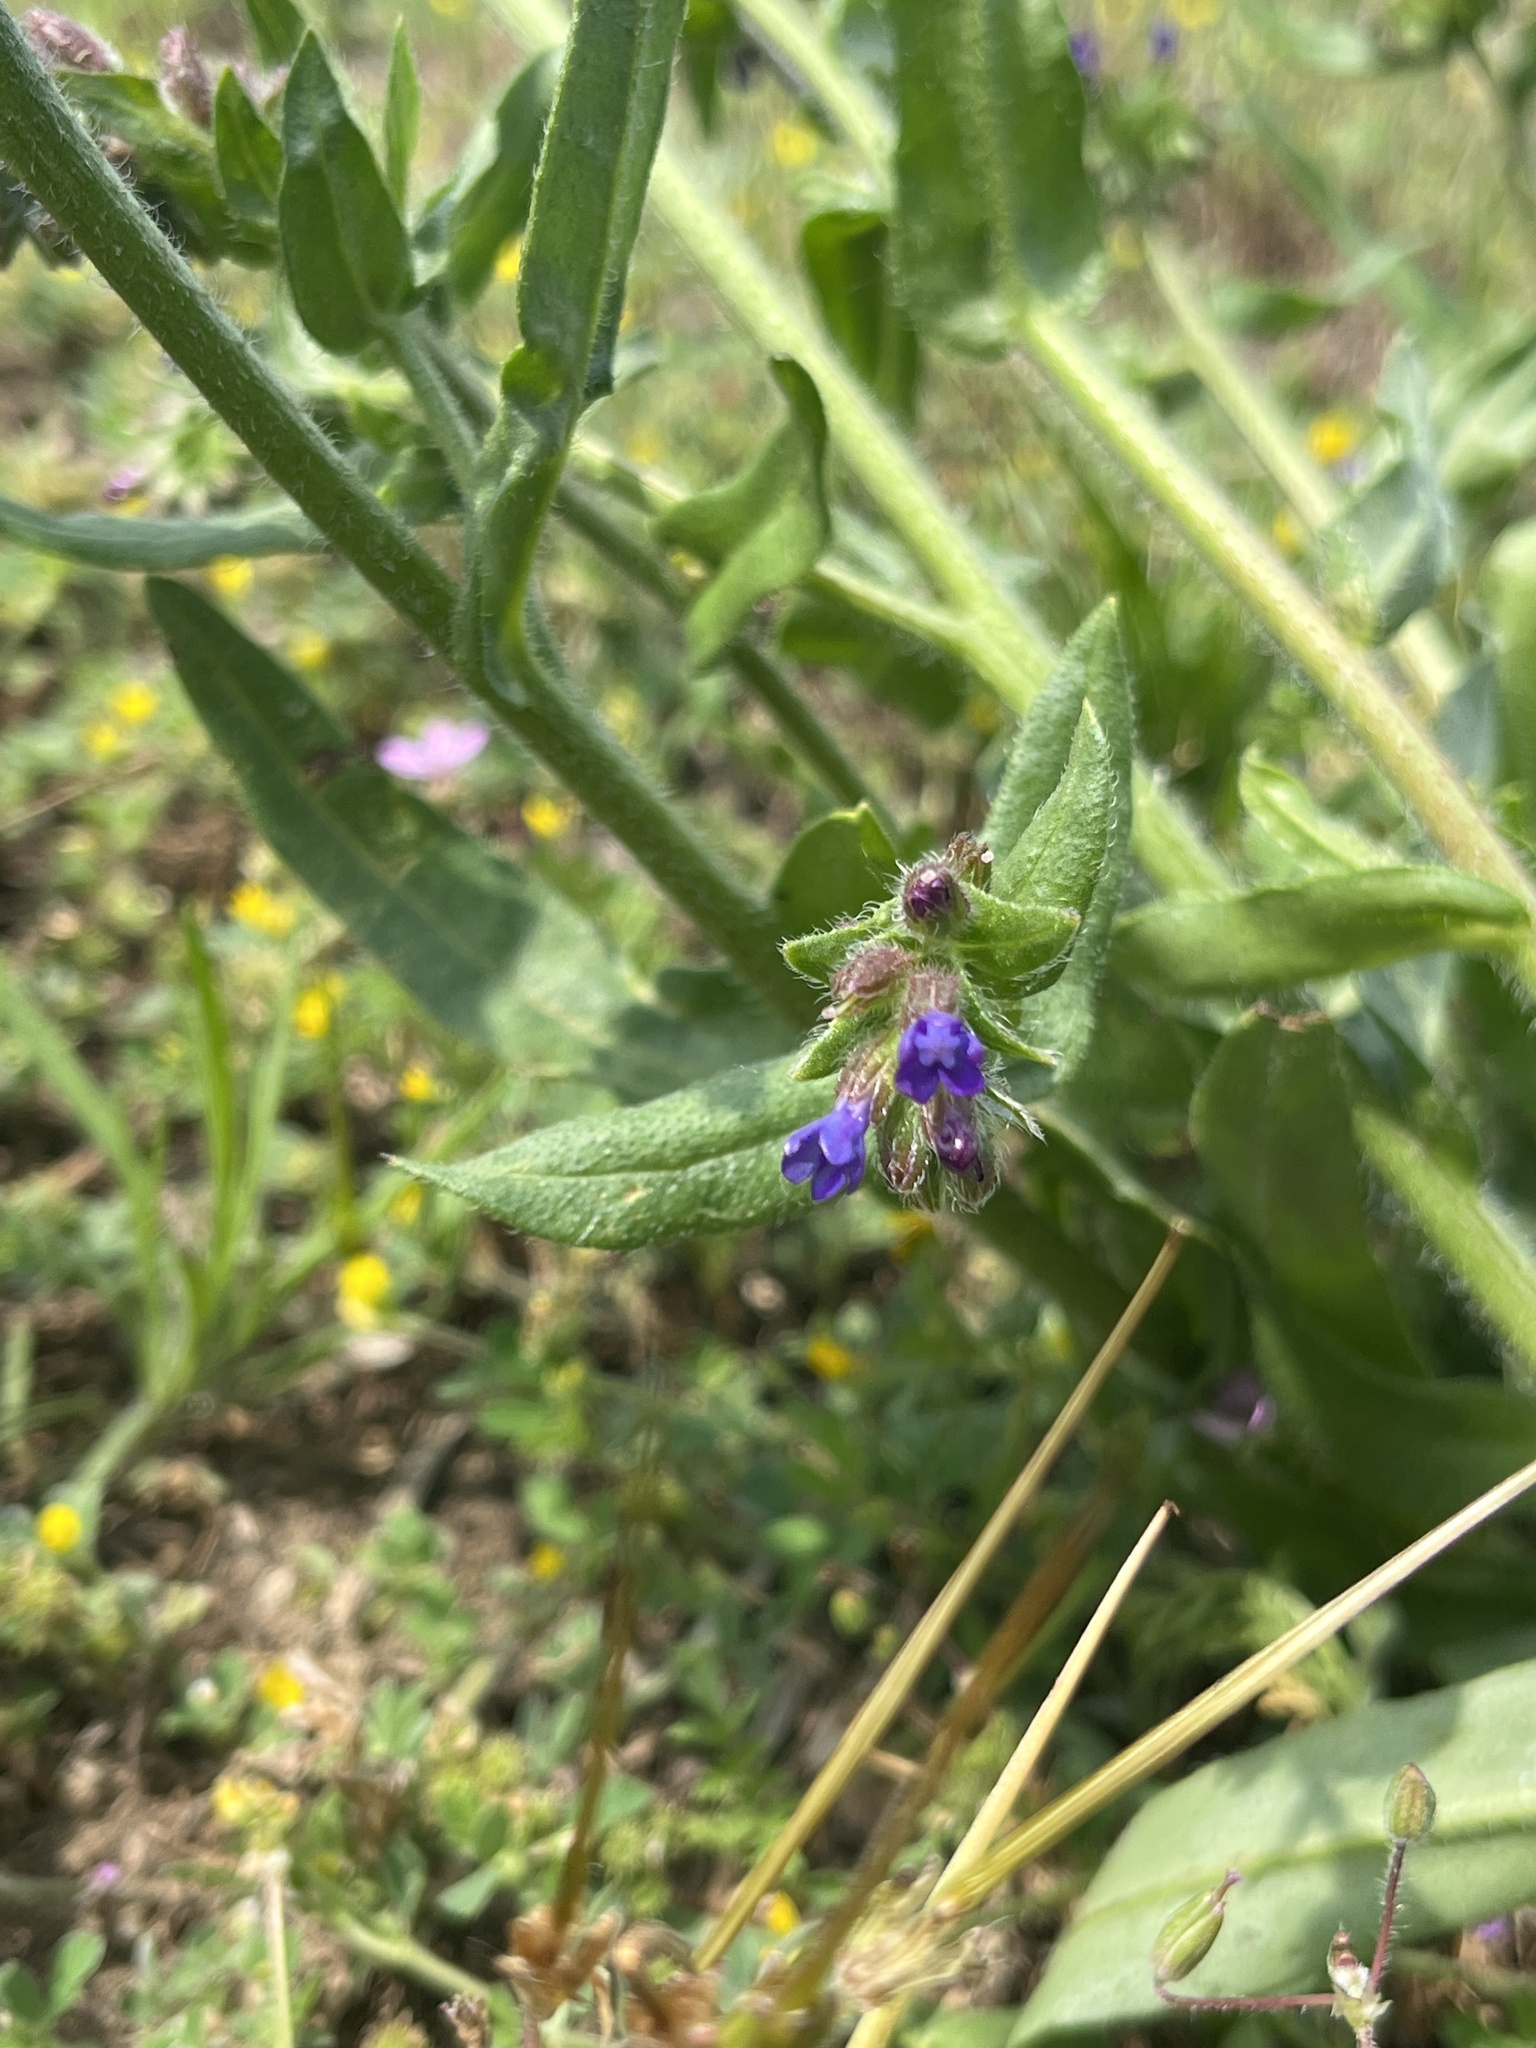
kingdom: Plantae
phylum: Tracheophyta
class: Magnoliopsida
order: Boraginales
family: Boraginaceae
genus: Anchusa
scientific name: Anchusa officinalis
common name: Alkanet
